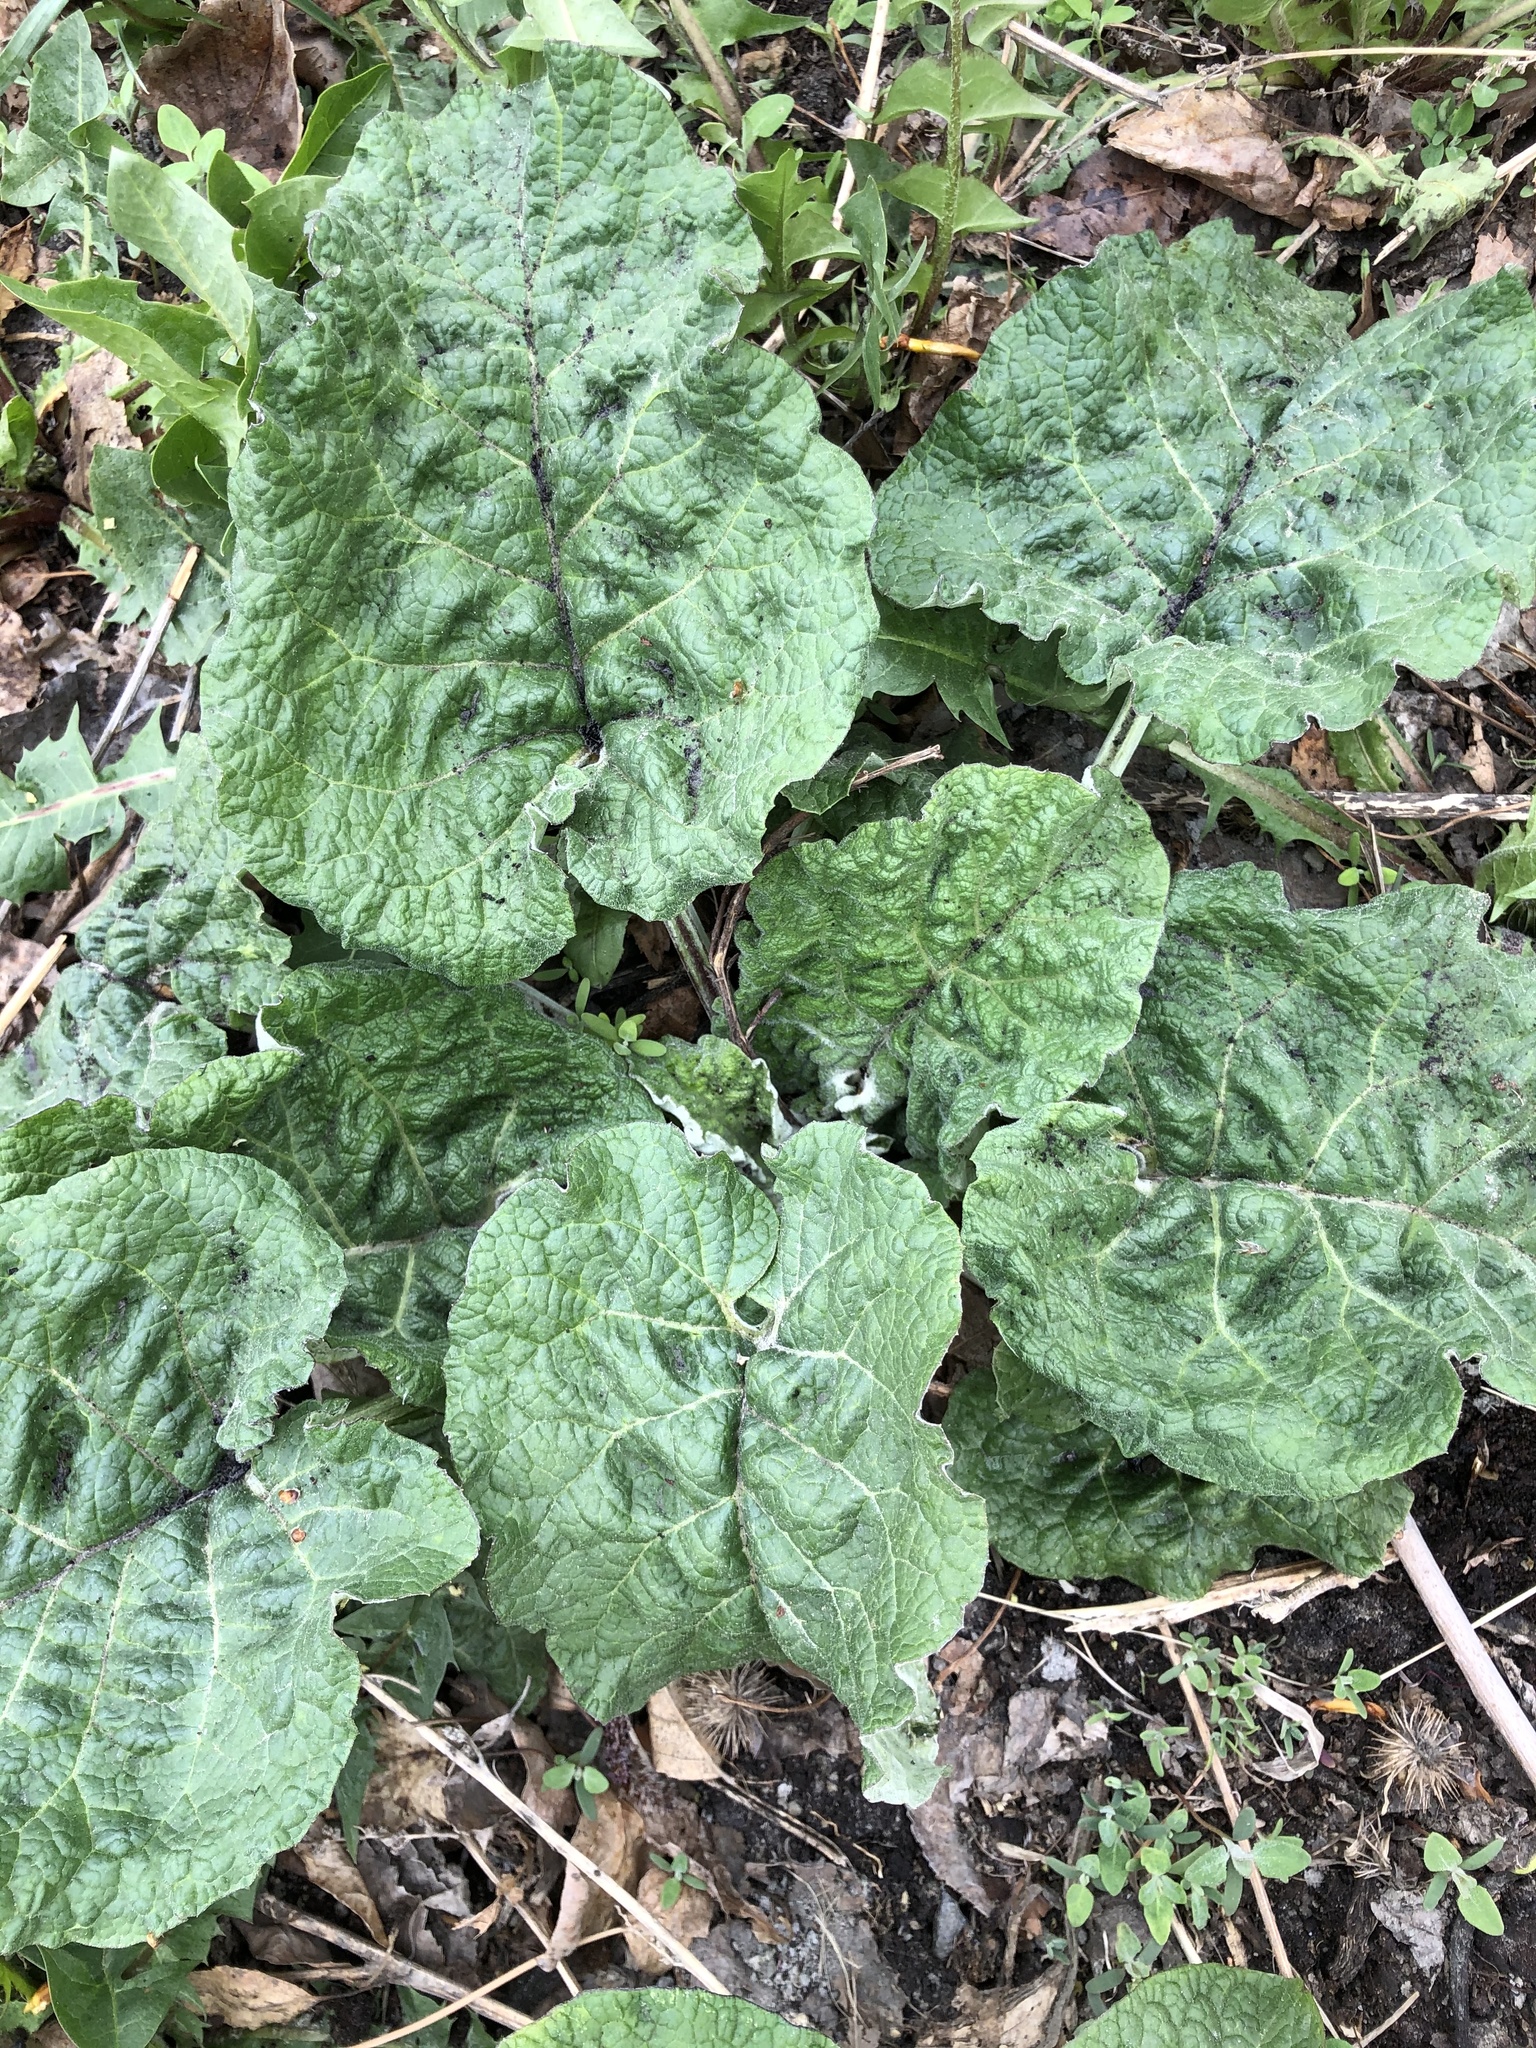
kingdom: Plantae
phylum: Tracheophyta
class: Magnoliopsida
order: Asterales
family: Asteraceae
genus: Arctium
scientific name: Arctium tomentosum
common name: Woolly burdock
